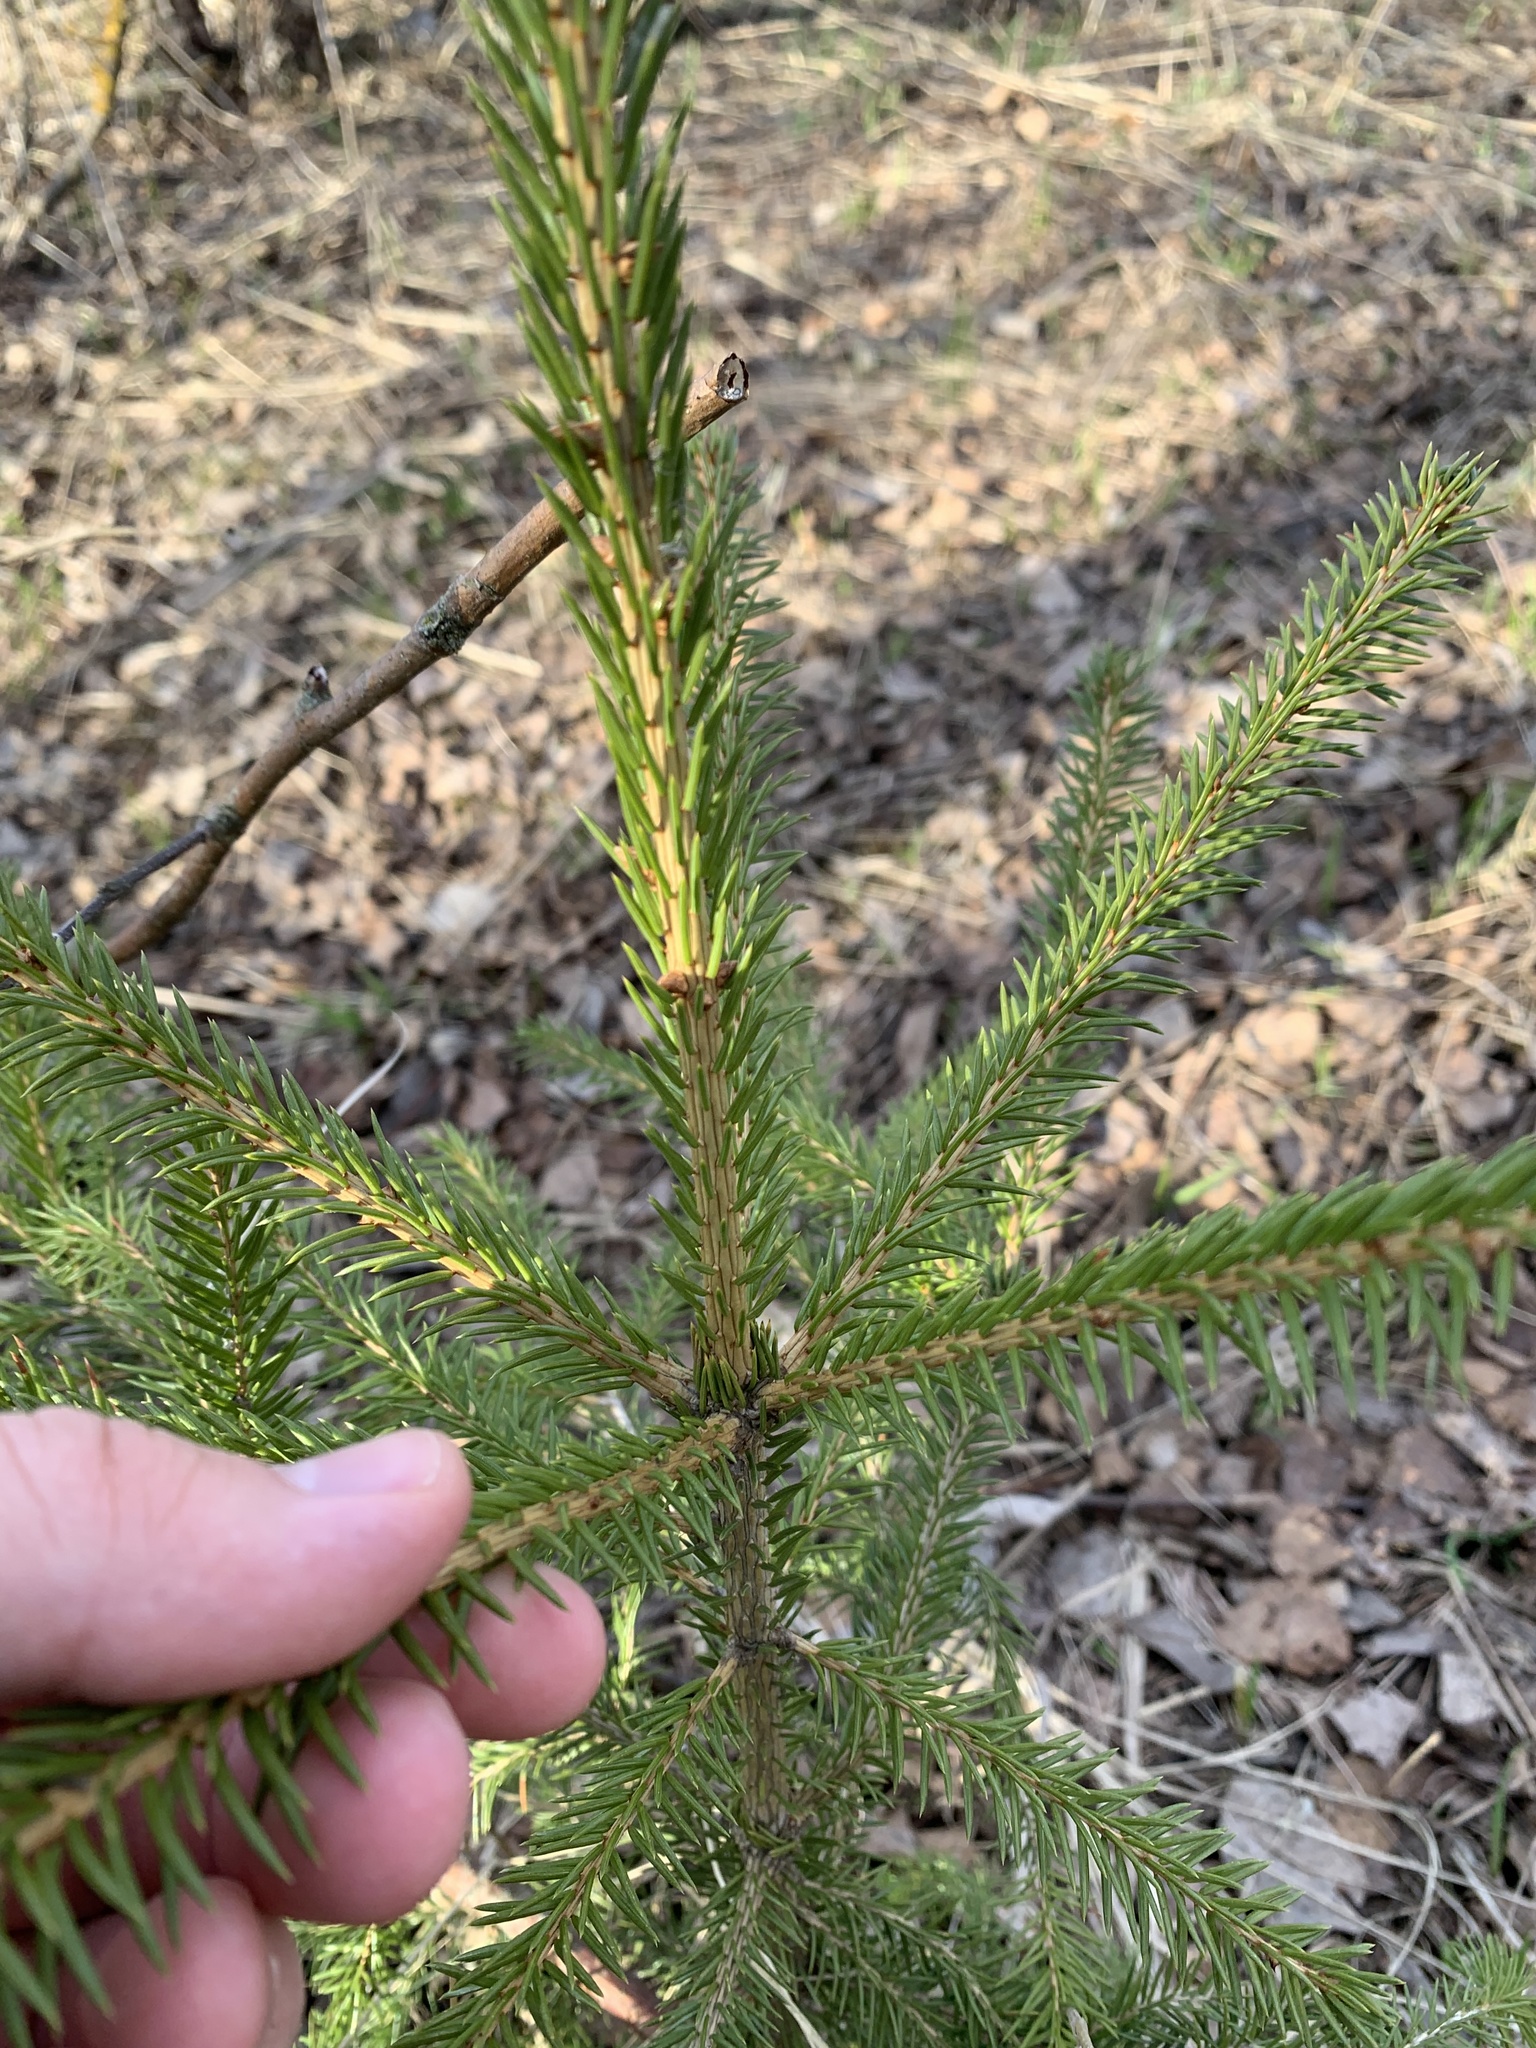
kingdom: Plantae
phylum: Tracheophyta
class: Pinopsida
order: Pinales
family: Pinaceae
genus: Picea
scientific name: Picea abies
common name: Norway spruce
